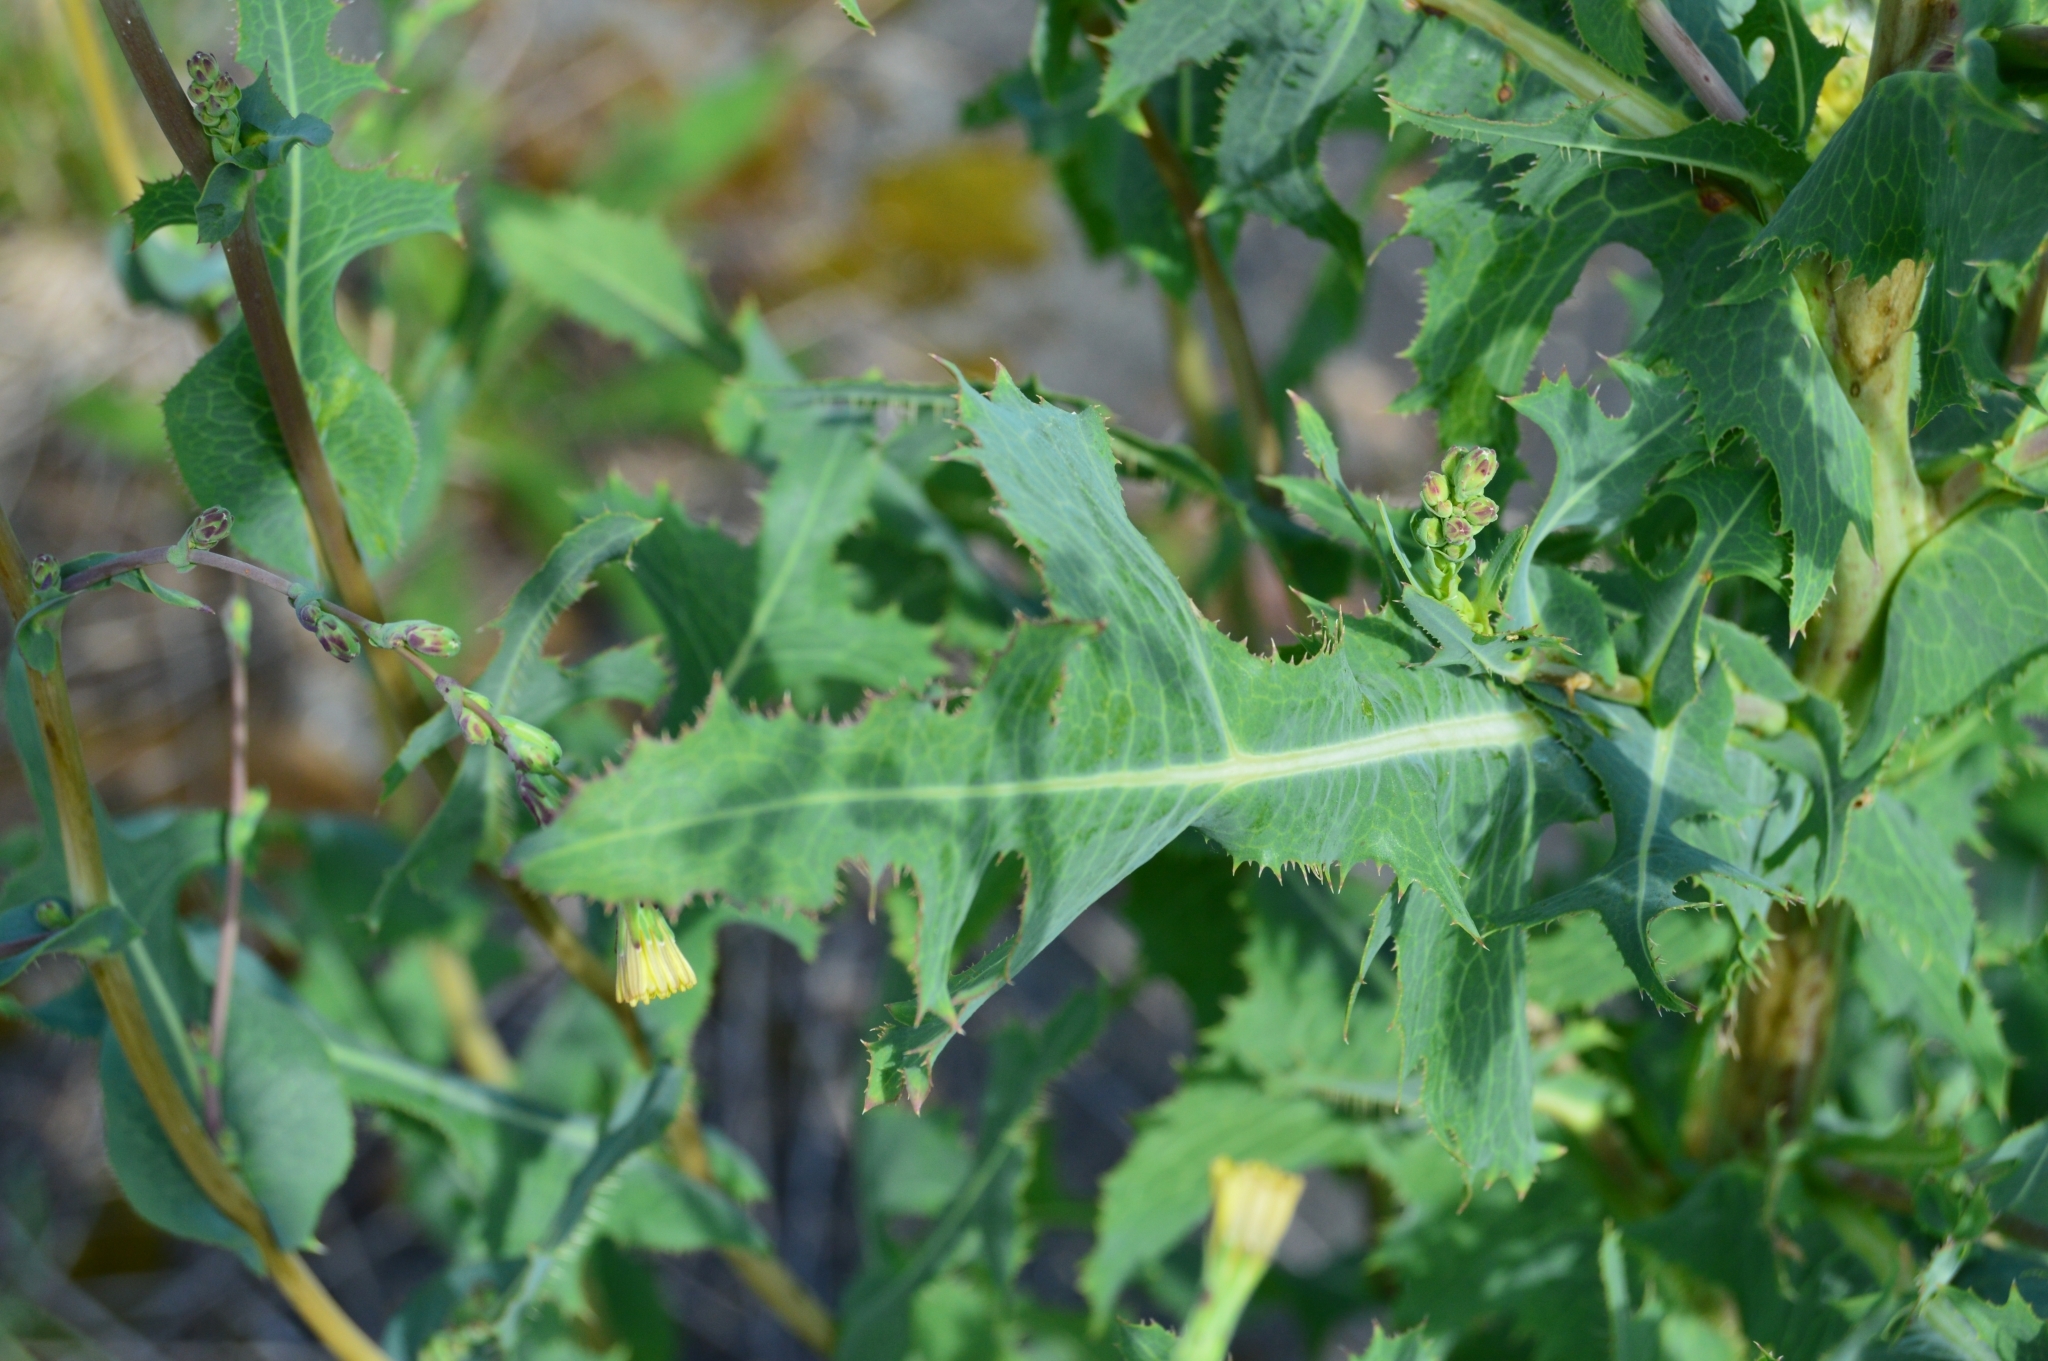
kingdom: Plantae
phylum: Tracheophyta
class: Magnoliopsida
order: Asterales
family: Asteraceae
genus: Lactuca
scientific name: Lactuca serriola
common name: Prickly lettuce
